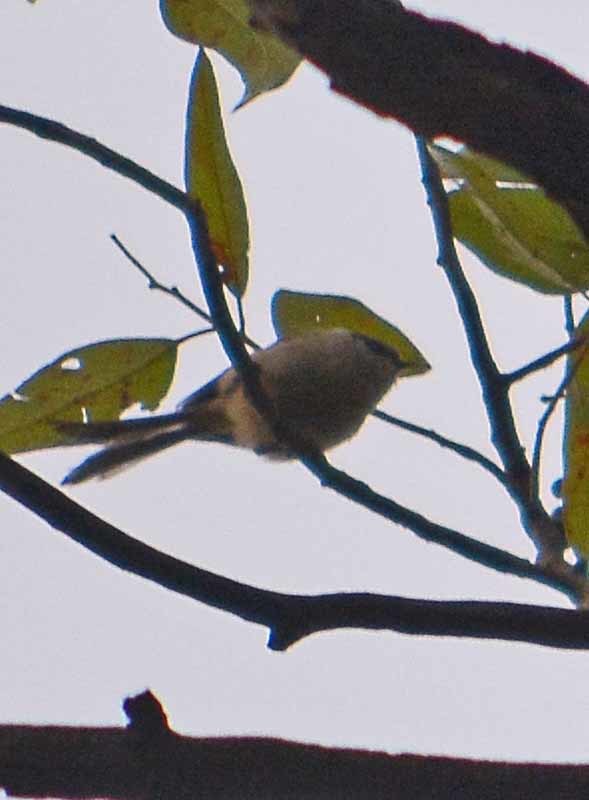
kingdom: Animalia
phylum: Chordata
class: Aves
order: Passeriformes
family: Aegithalidae
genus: Psaltriparus
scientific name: Psaltriparus minimus
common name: American bushtit
